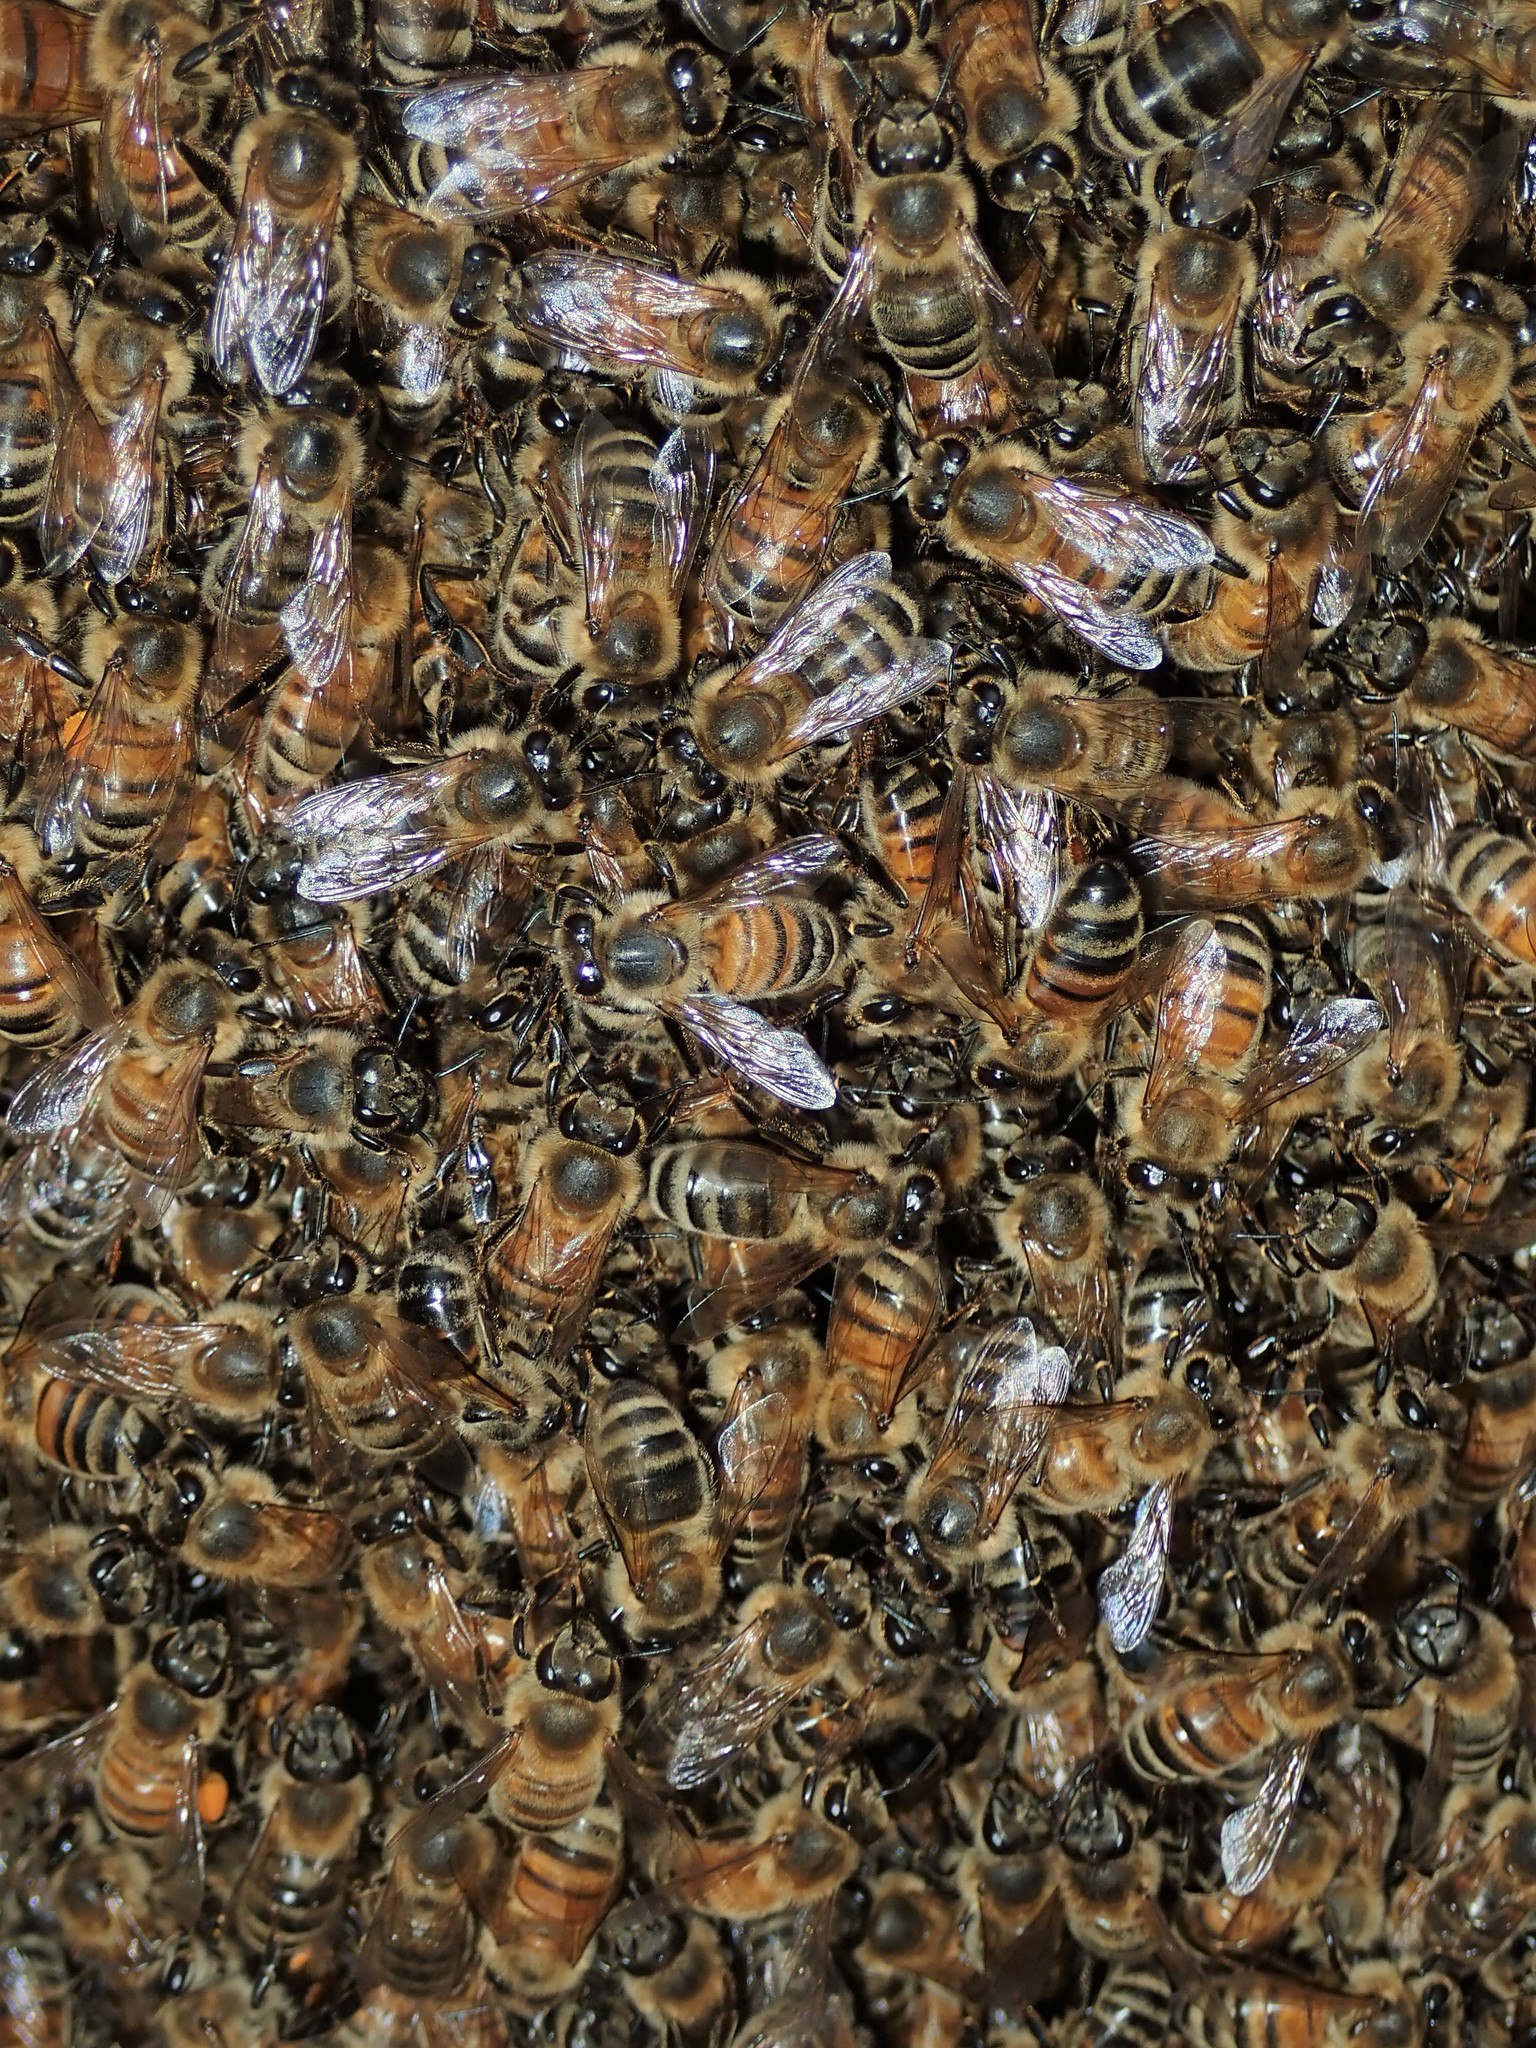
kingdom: Animalia
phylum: Arthropoda
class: Insecta
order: Hymenoptera
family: Apidae
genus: Apis
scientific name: Apis mellifera
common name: Honey bee
